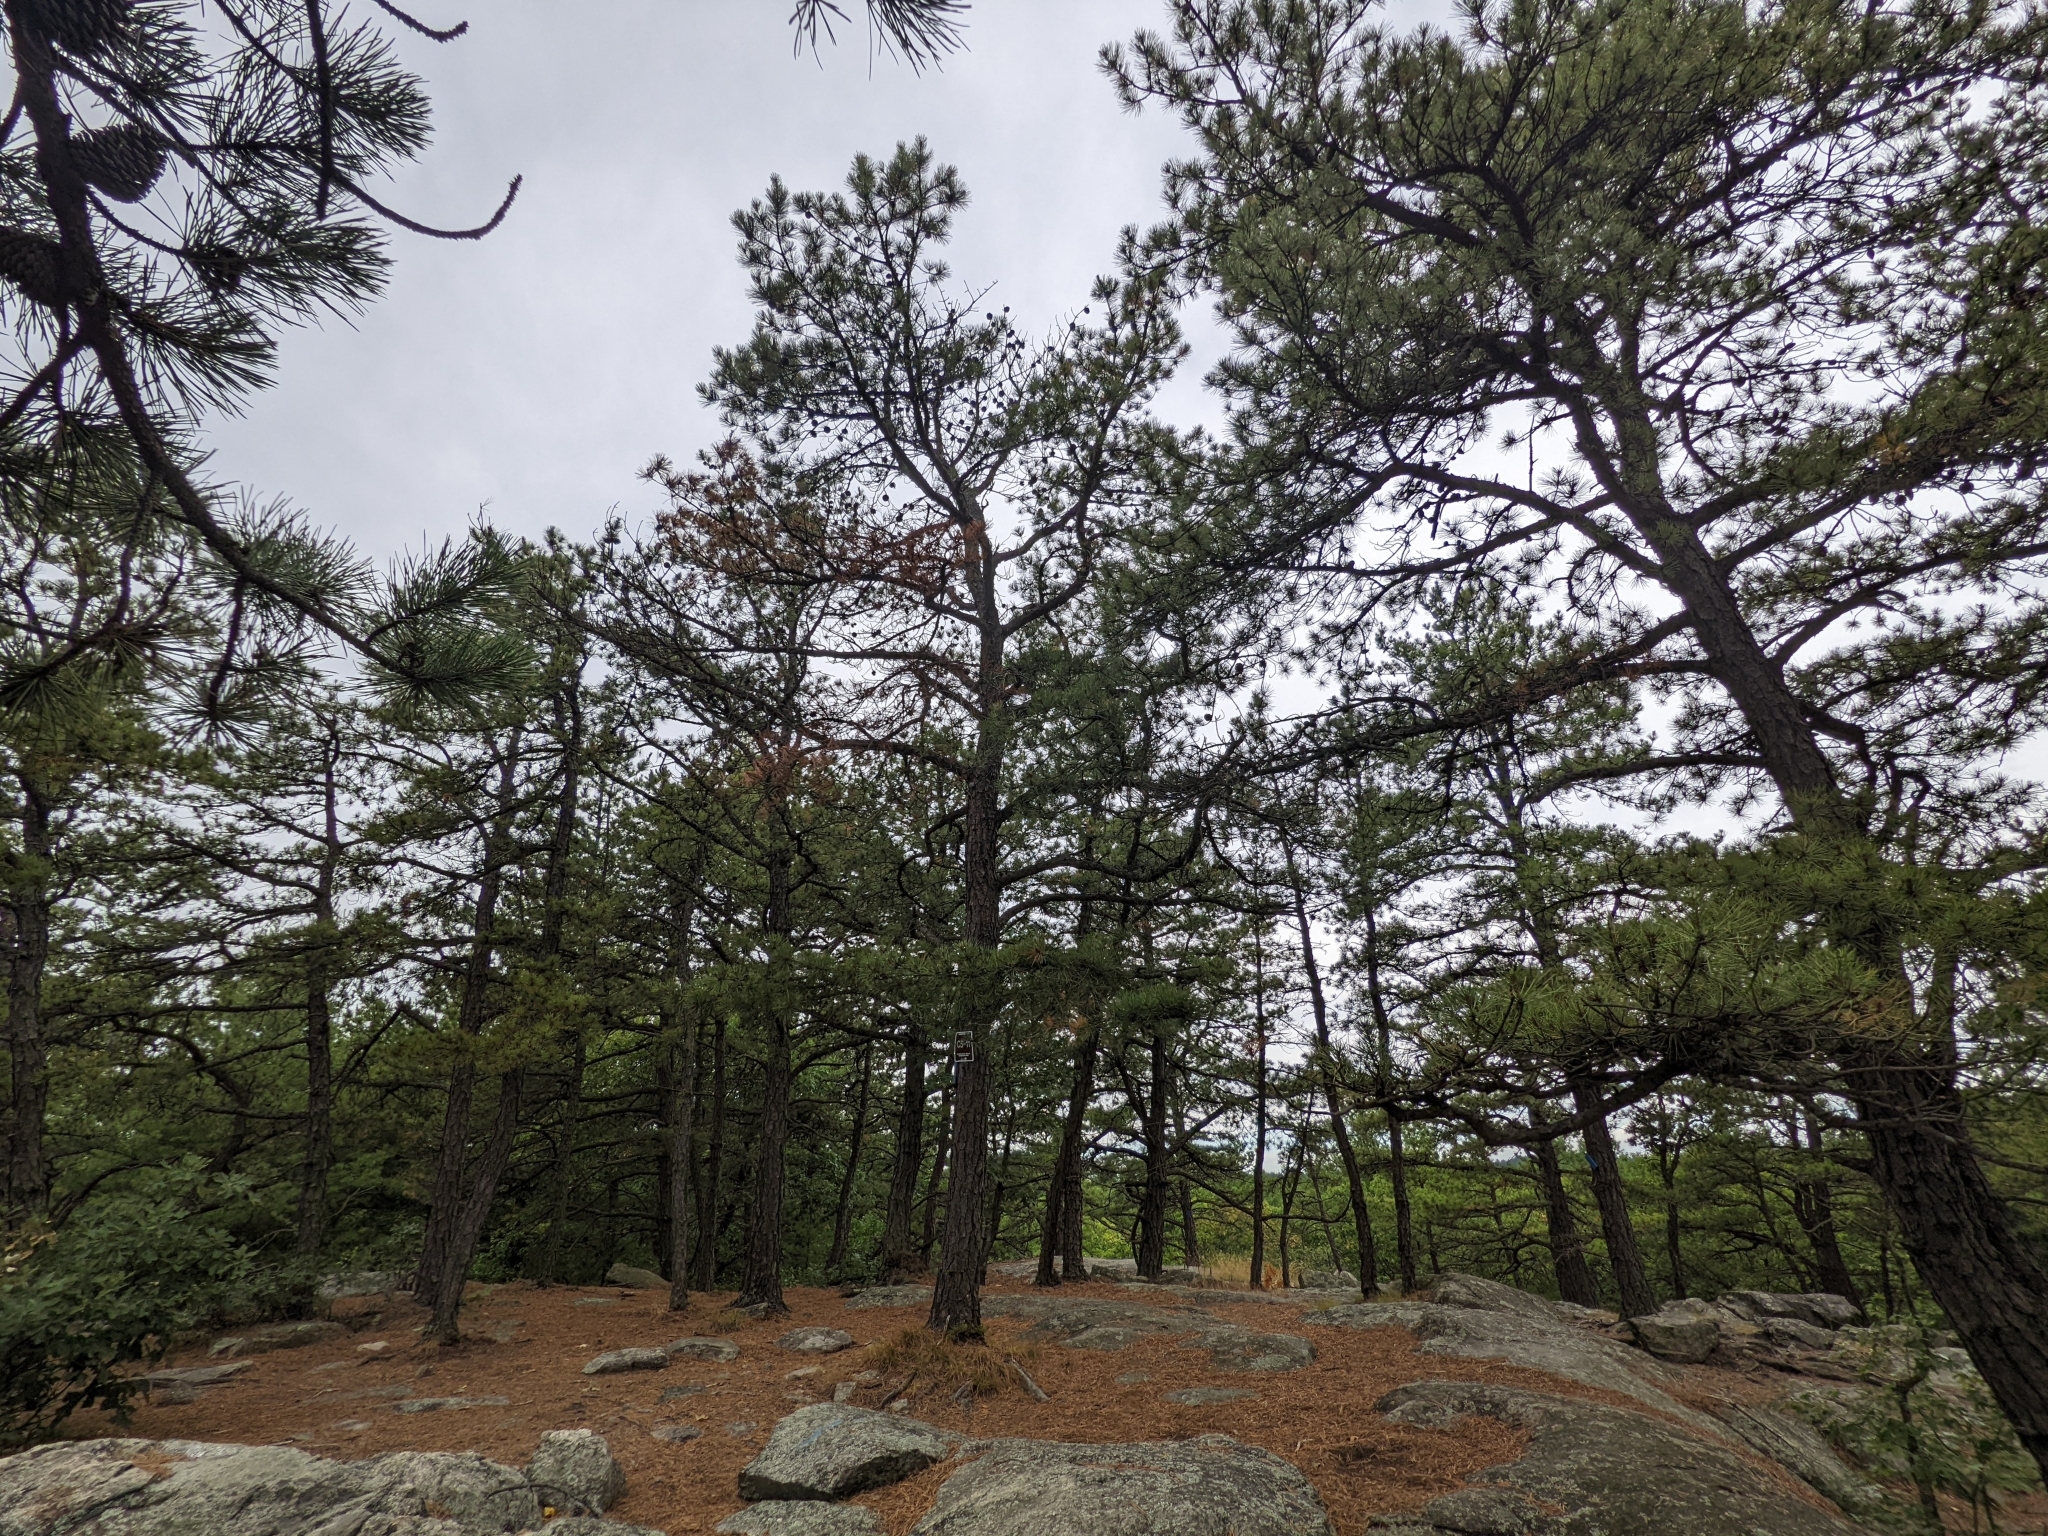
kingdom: Plantae
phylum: Tracheophyta
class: Pinopsida
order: Pinales
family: Pinaceae
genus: Pinus
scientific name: Pinus rigida
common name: Pitch pine
